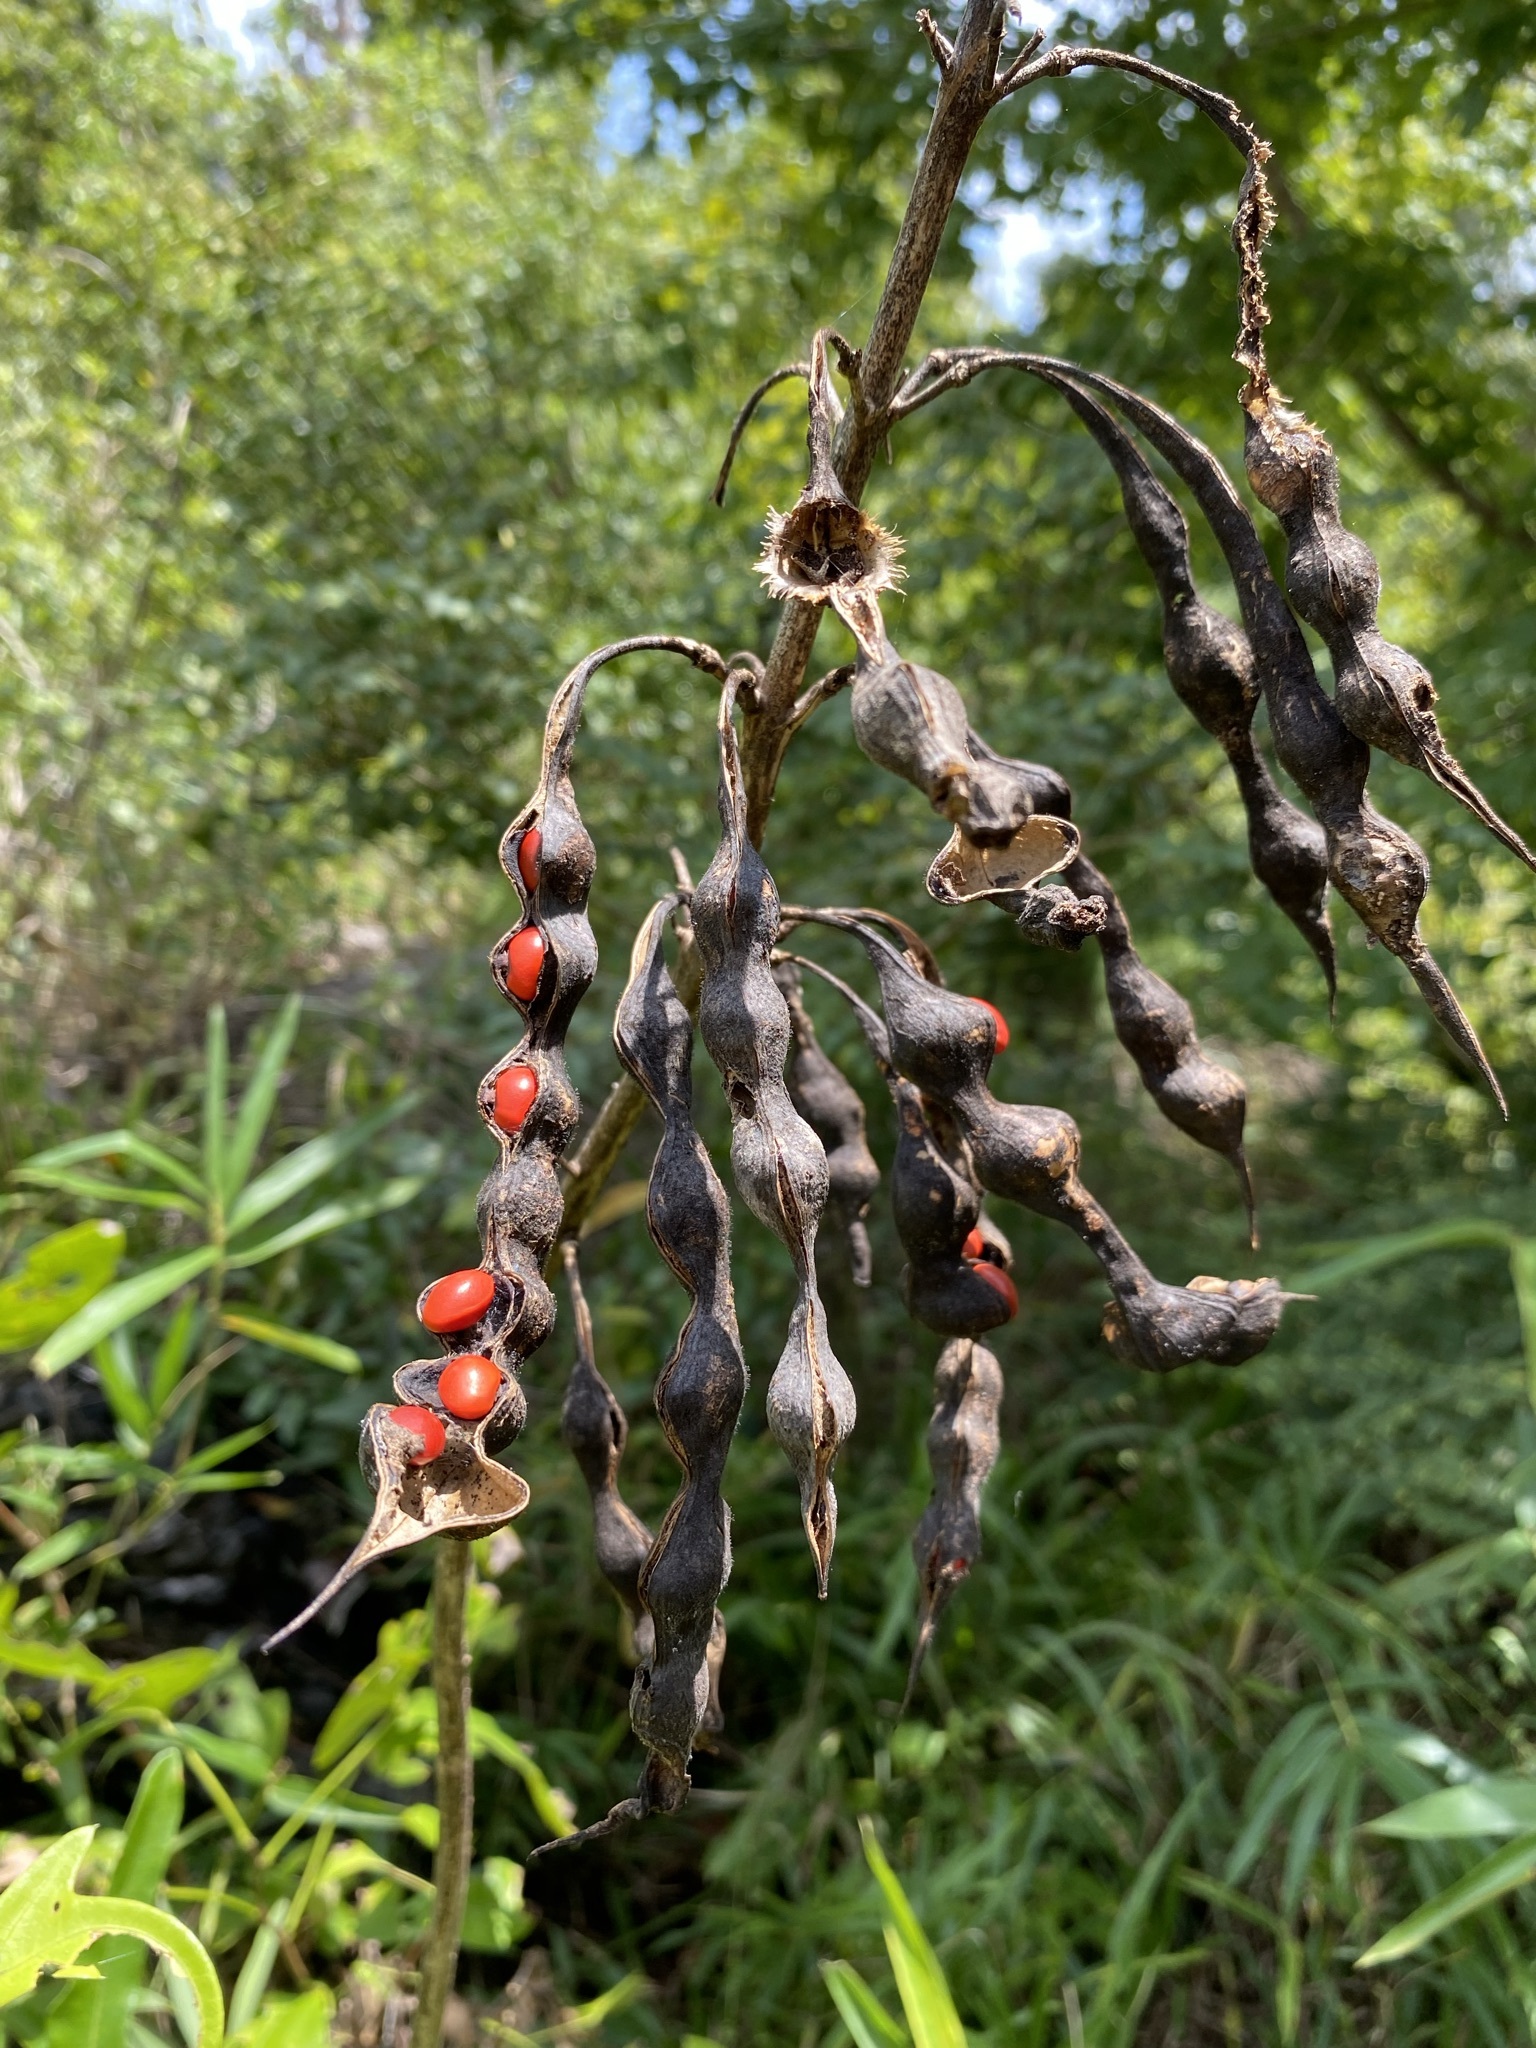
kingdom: Plantae
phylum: Tracheophyta
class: Magnoliopsida
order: Fabales
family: Fabaceae
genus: Erythrina
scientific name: Erythrina herbacea
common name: Coral-bean
